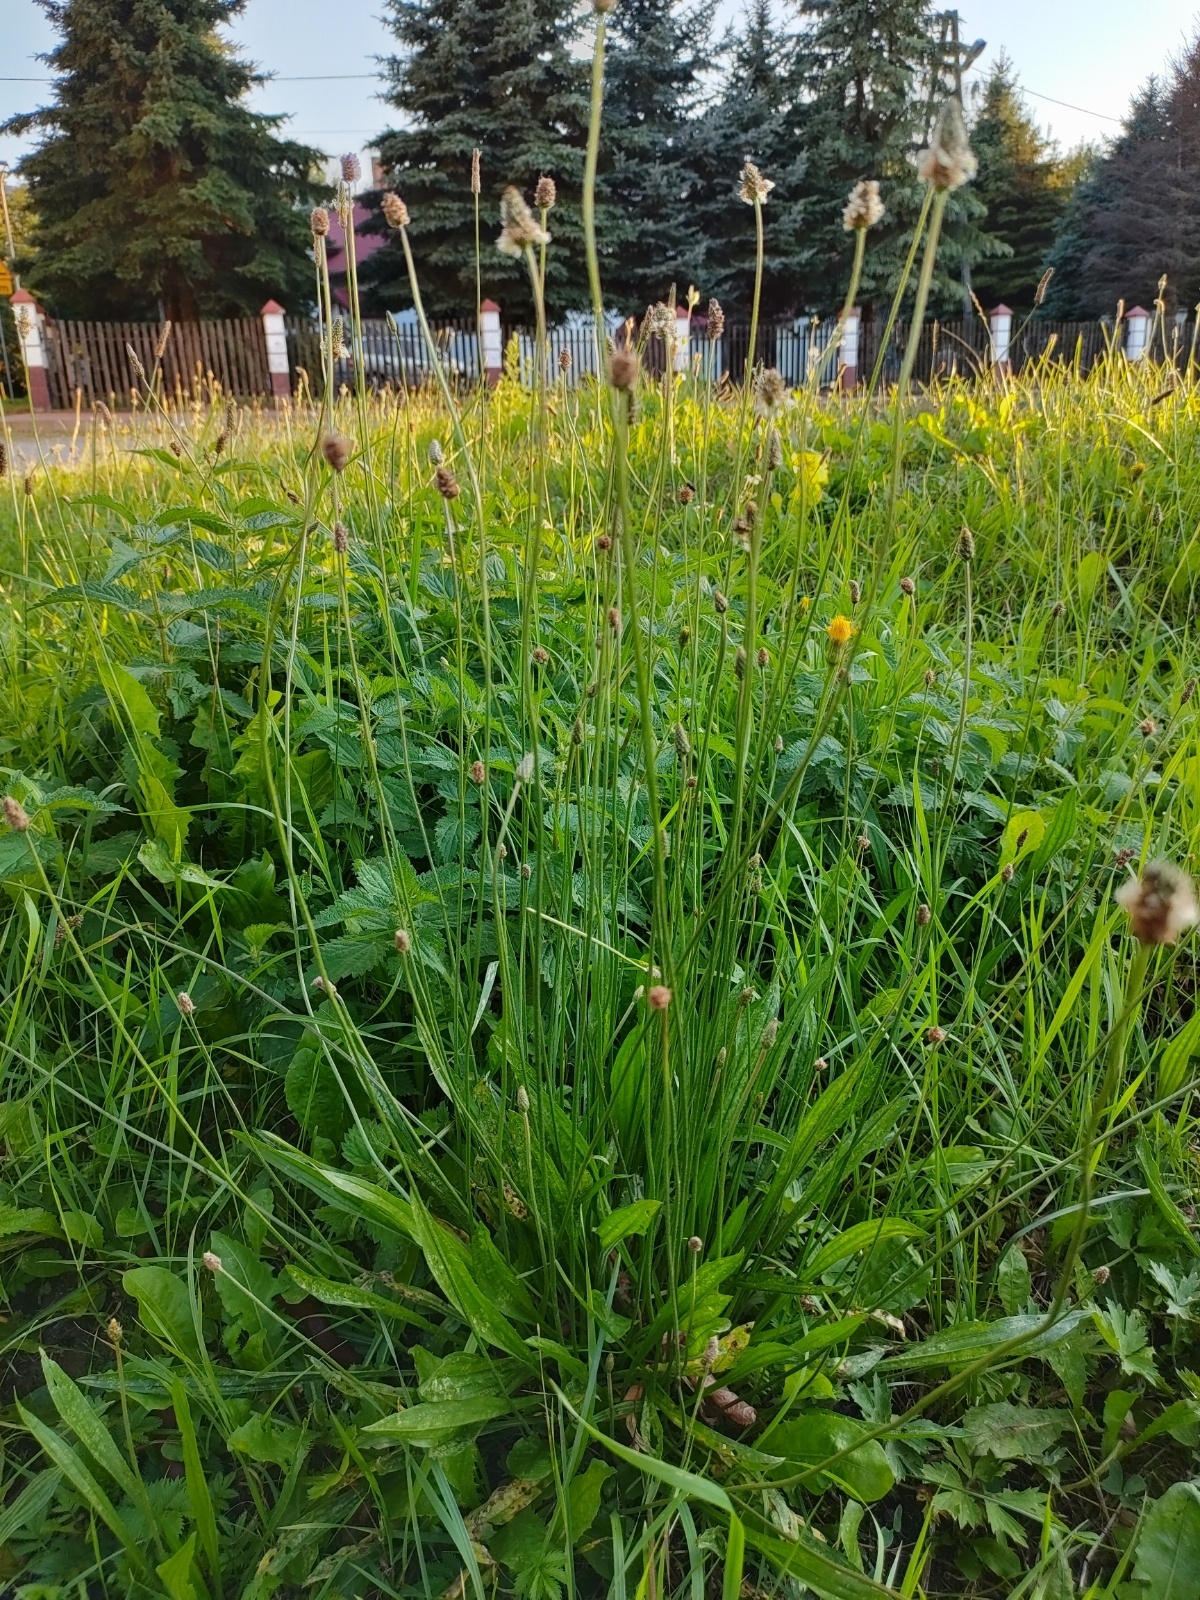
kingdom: Plantae
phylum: Tracheophyta
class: Magnoliopsida
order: Lamiales
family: Plantaginaceae
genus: Plantago
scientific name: Plantago lanceolata
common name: Ribwort plantain
